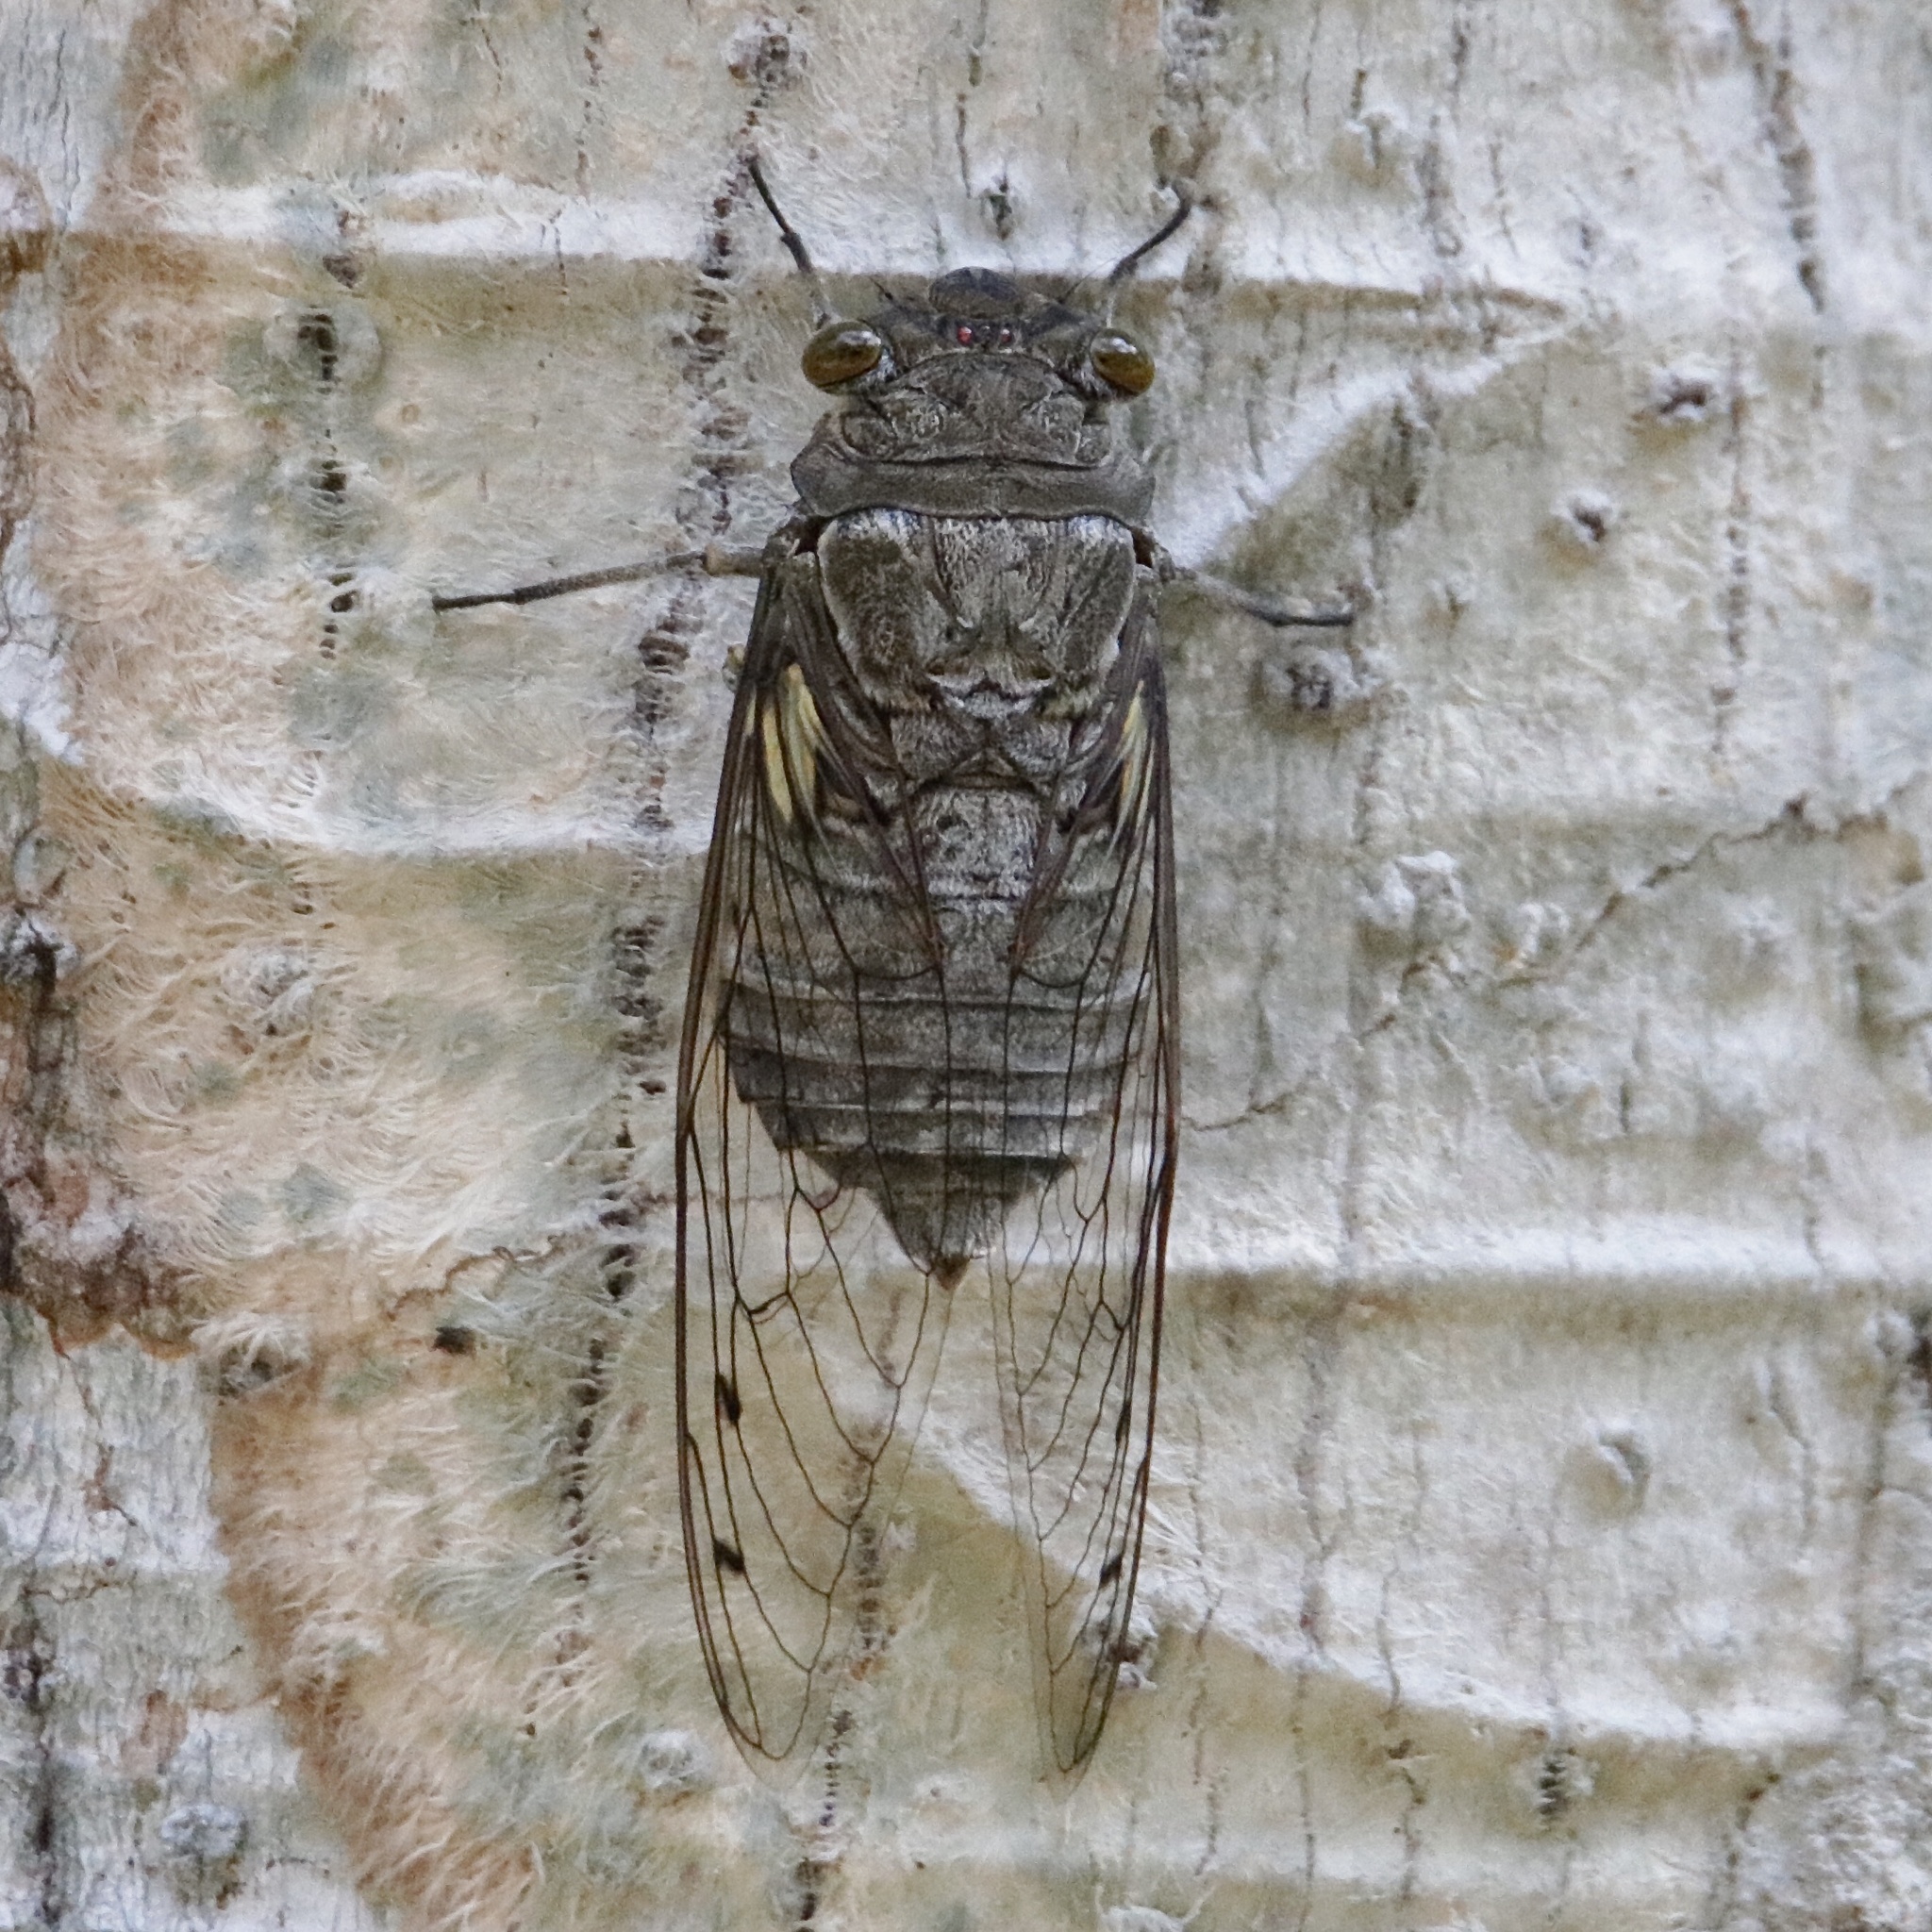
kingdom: Animalia
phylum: Arthropoda
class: Insecta
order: Hemiptera
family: Cicadidae
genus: Quesada
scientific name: Quesada gigas
